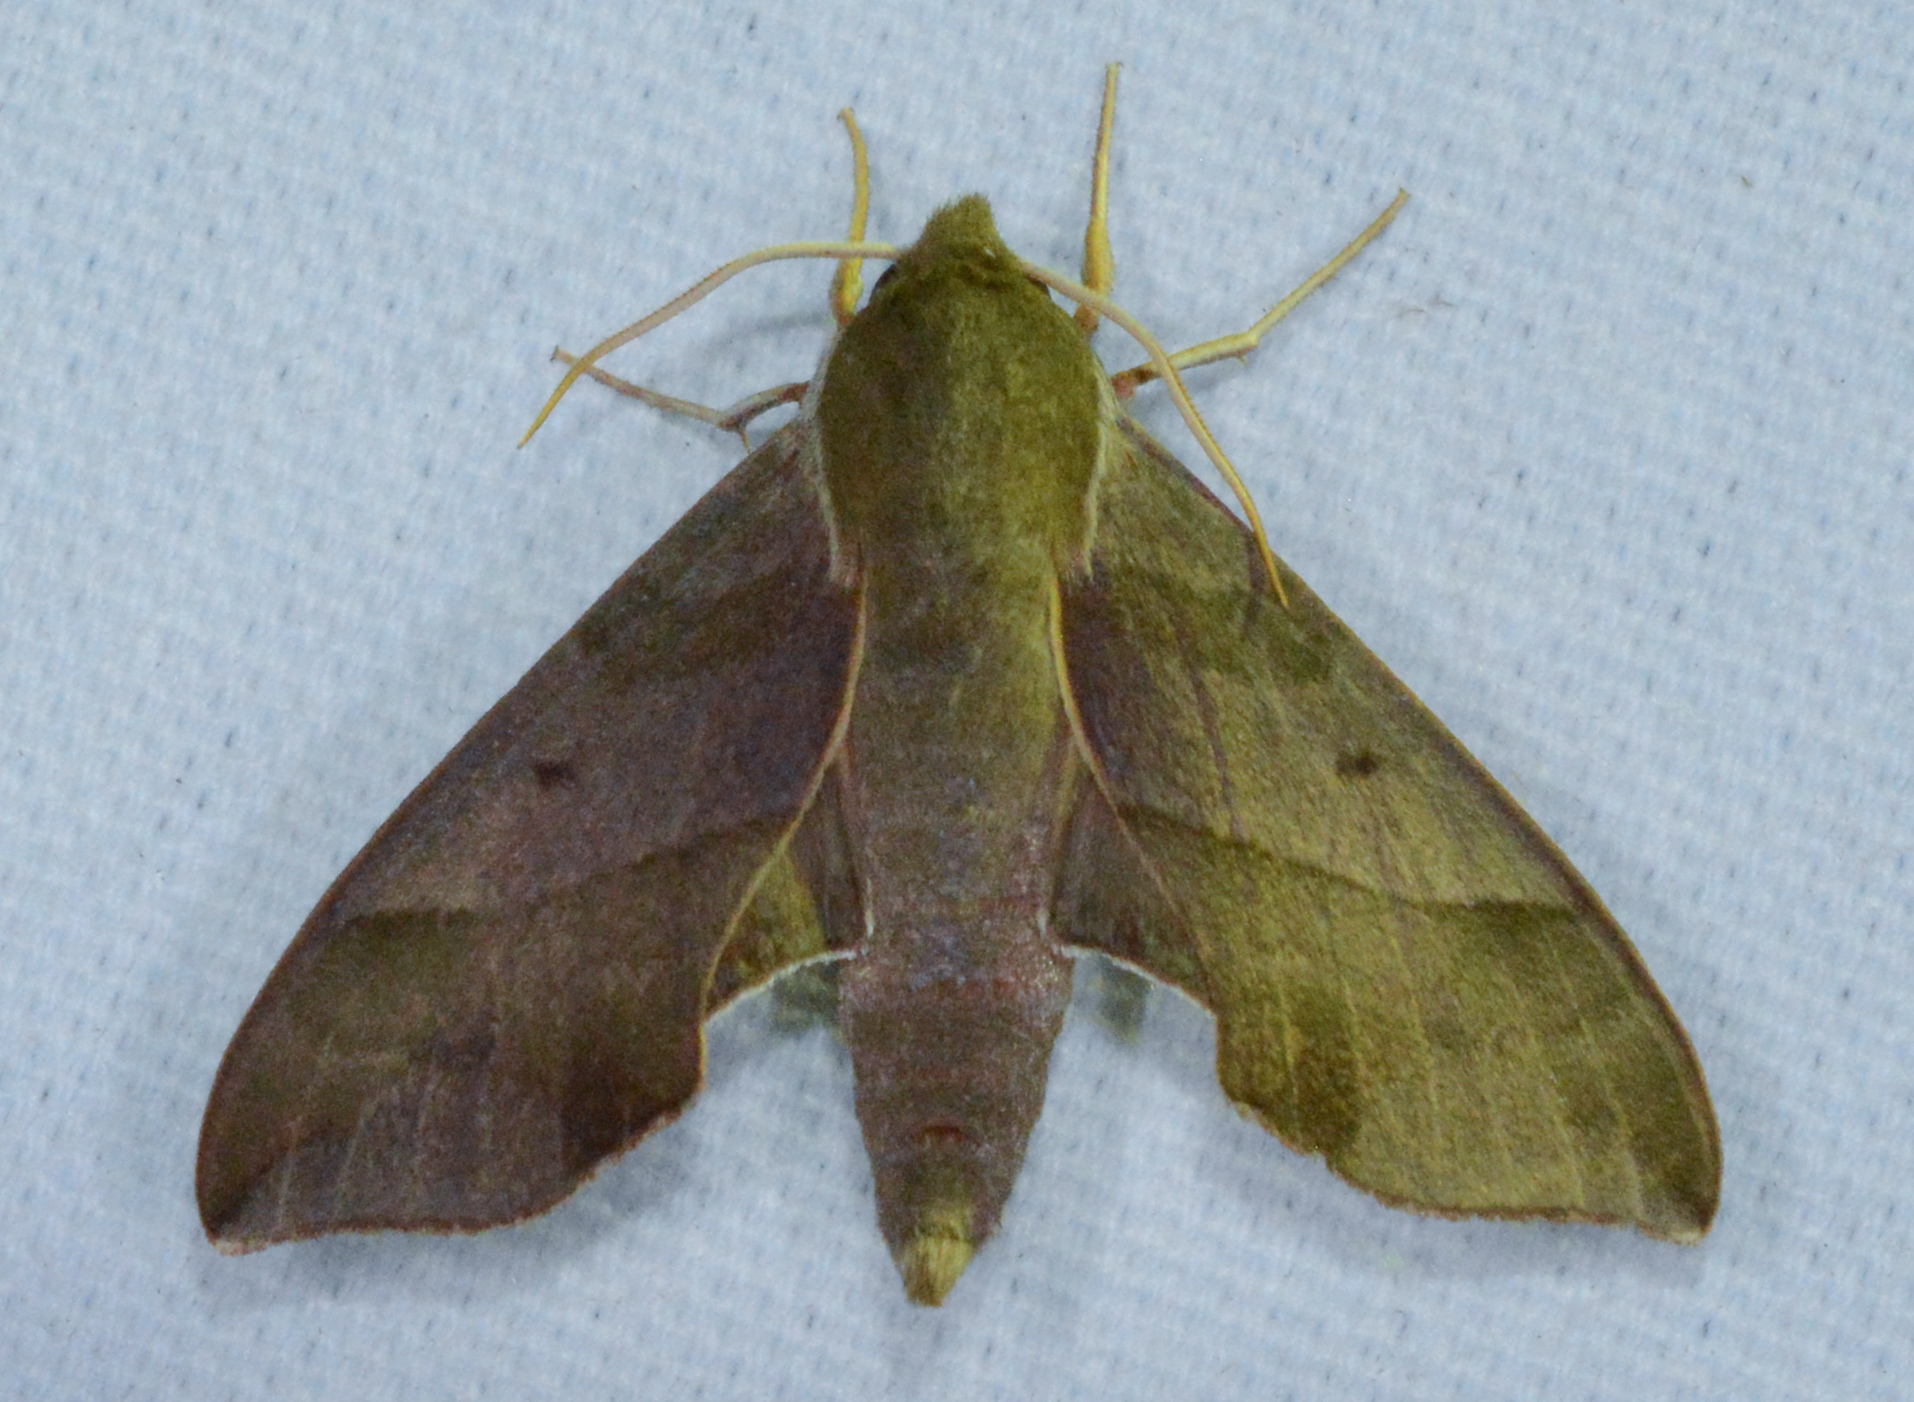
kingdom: Animalia
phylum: Arthropoda
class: Insecta
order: Lepidoptera
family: Sphingidae
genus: Darapsa
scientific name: Darapsa myron
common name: Hog sphinx
